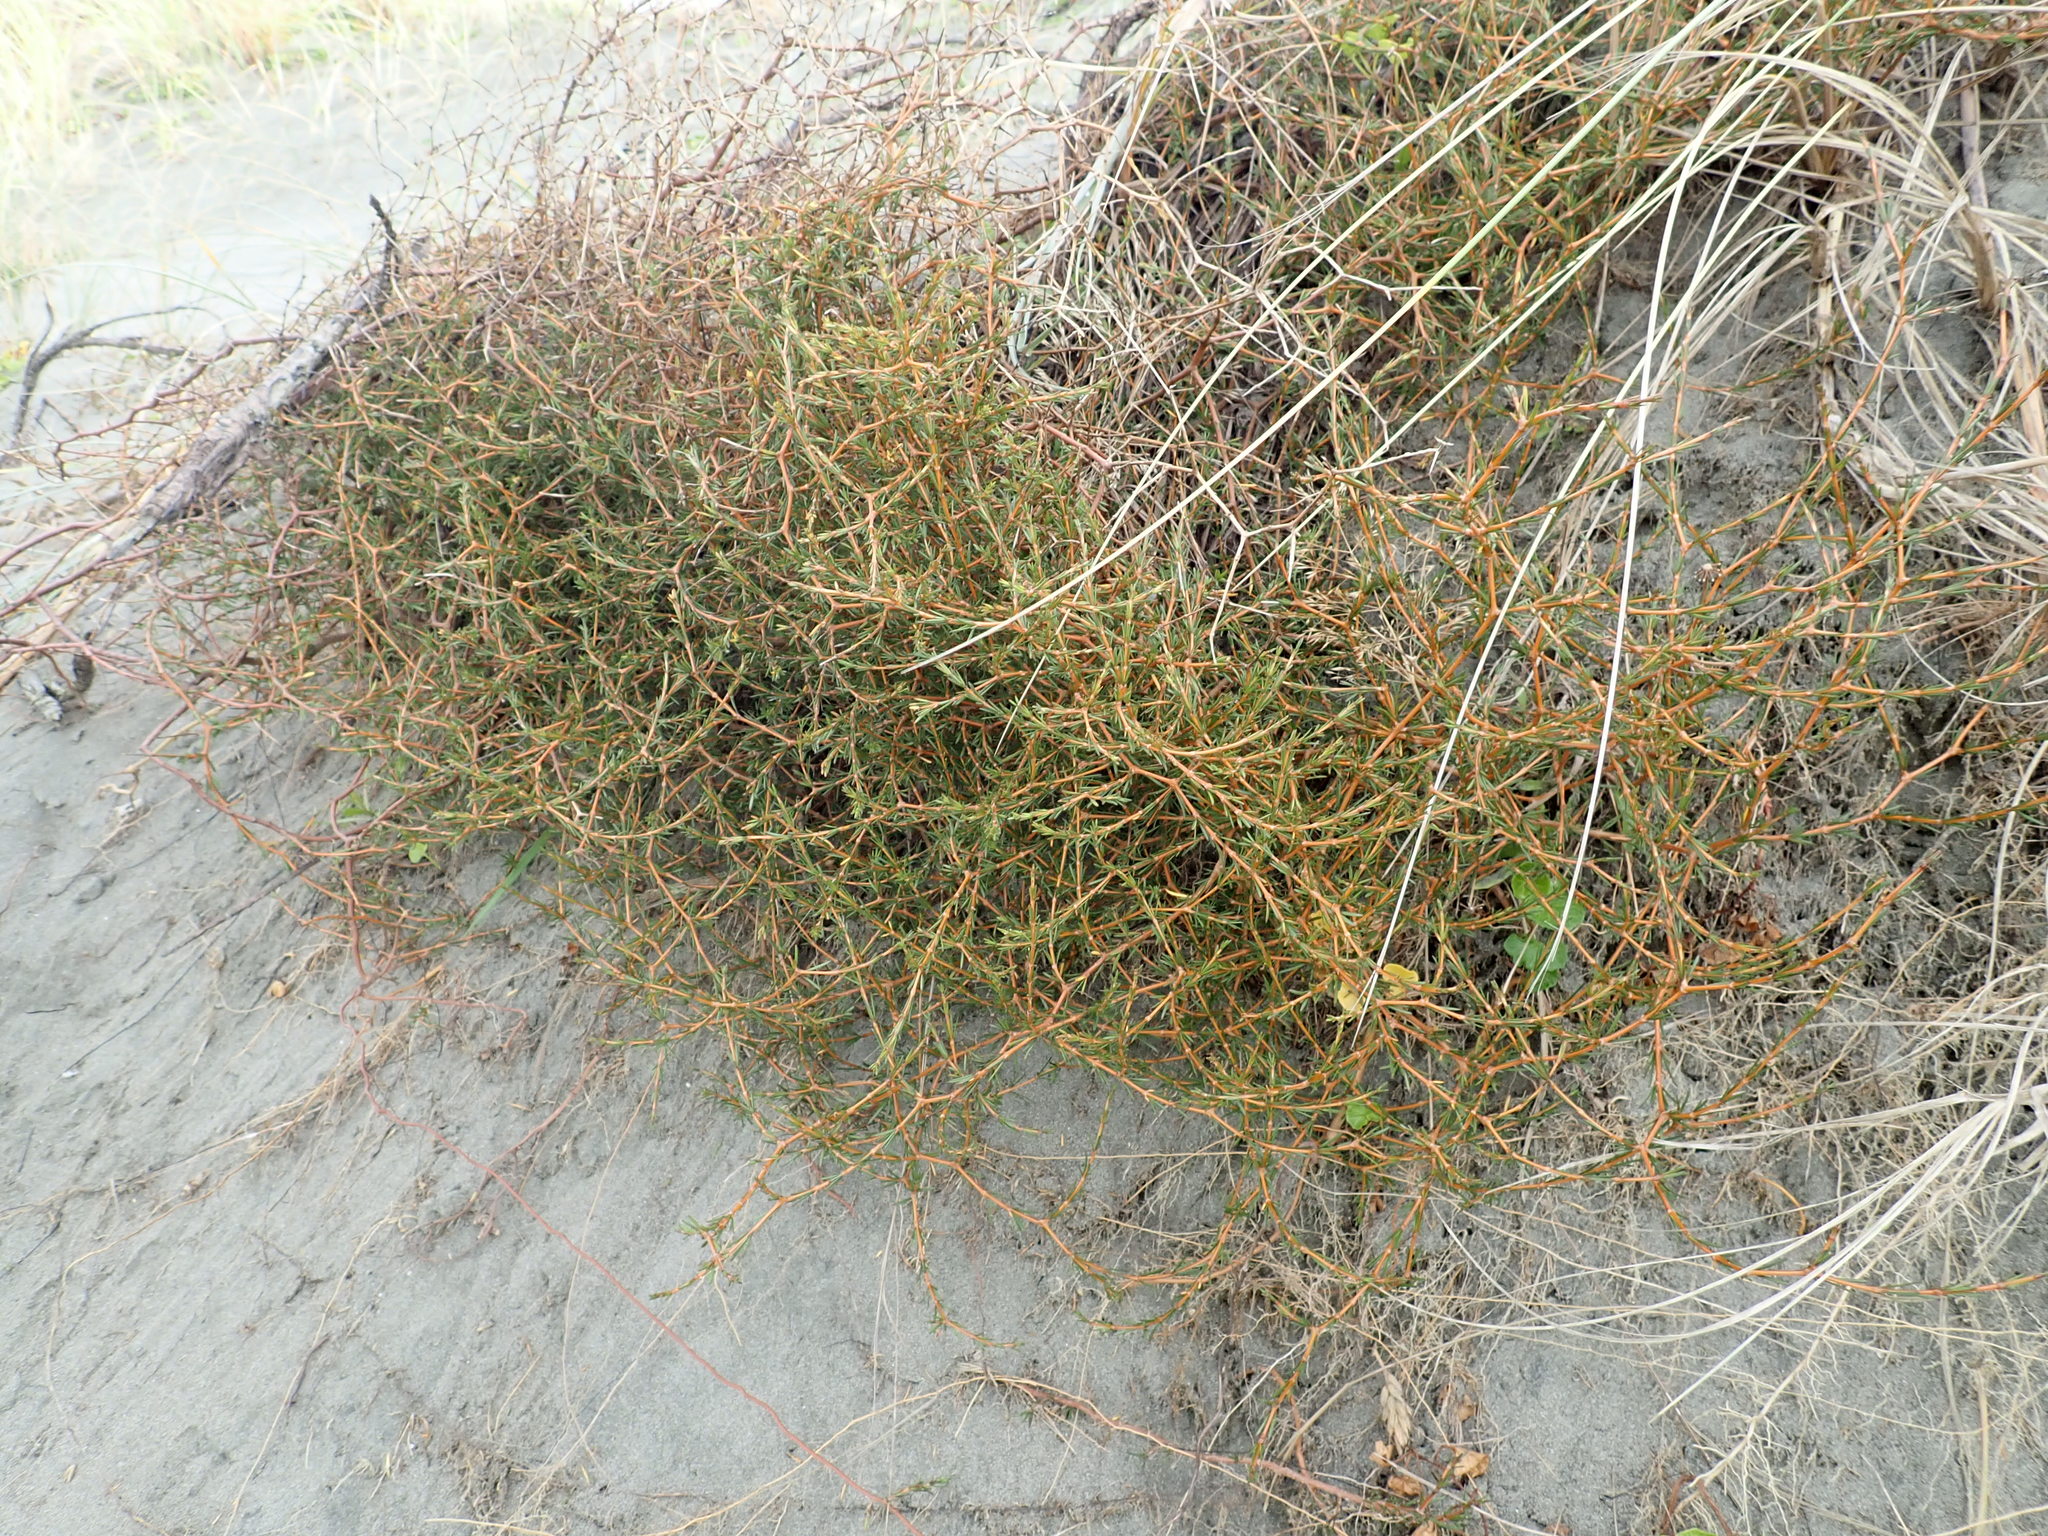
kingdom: Plantae
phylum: Tracheophyta
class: Magnoliopsida
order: Gentianales
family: Rubiaceae
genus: Coprosma
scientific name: Coprosma acerosa
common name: Sand coprosma
